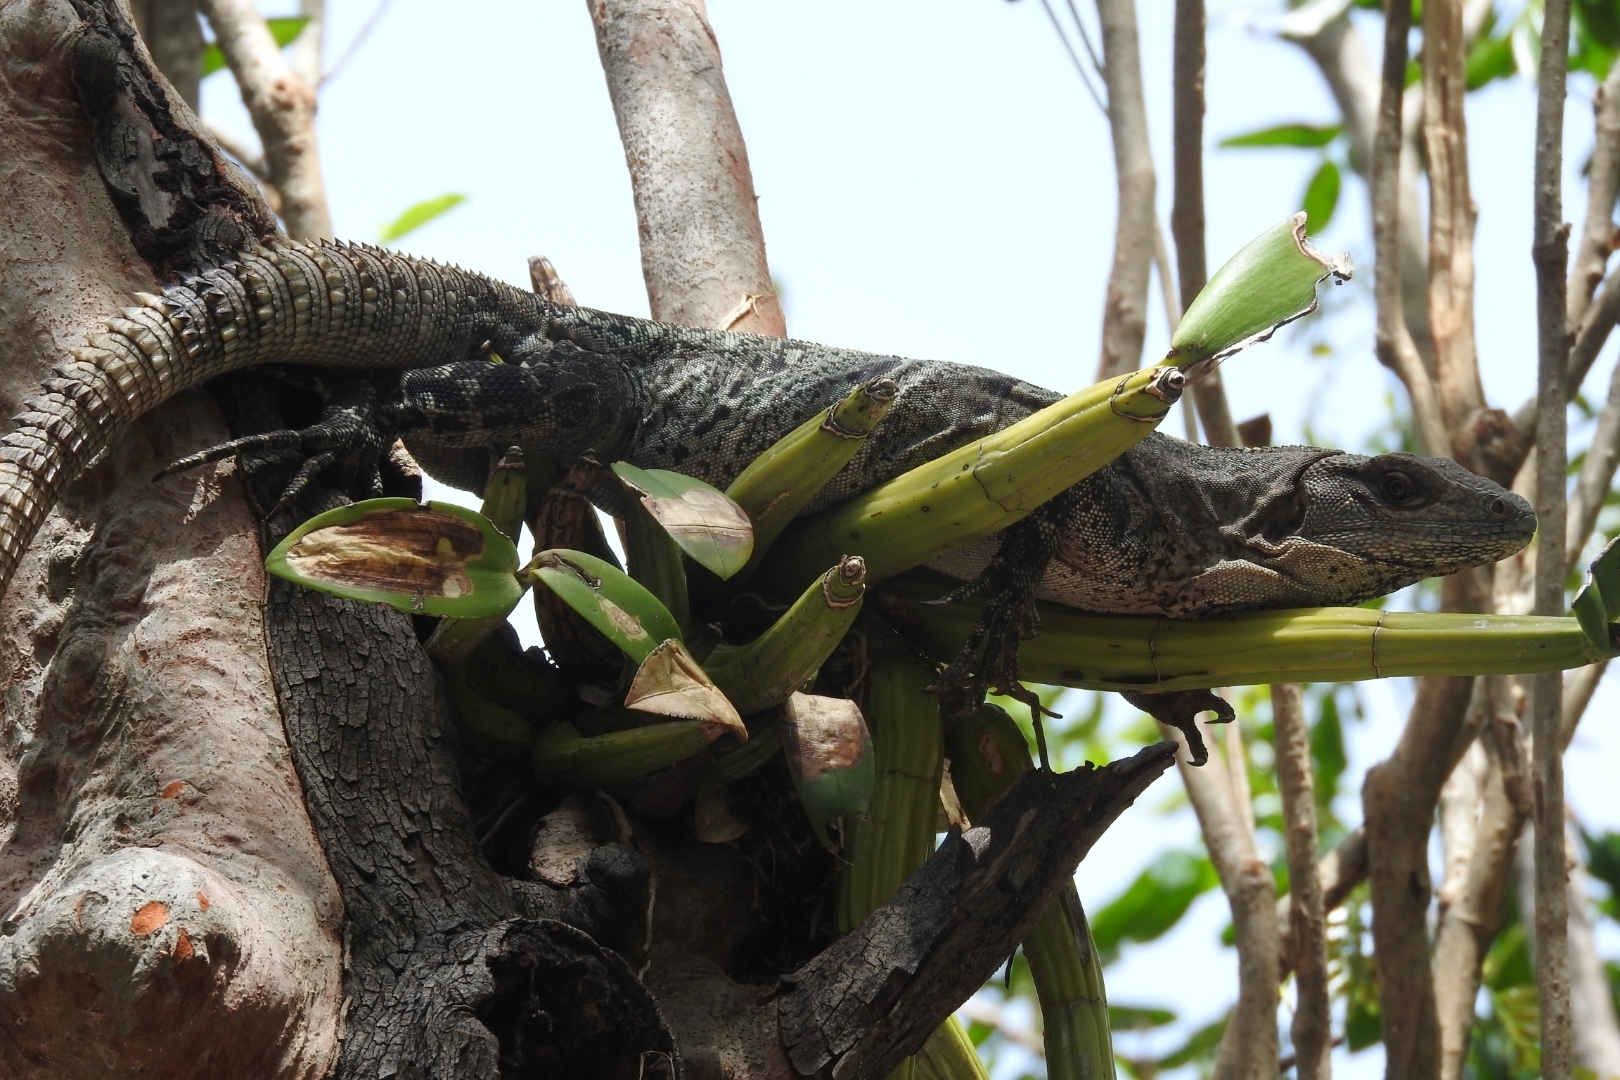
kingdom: Animalia
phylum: Chordata
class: Squamata
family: Iguanidae
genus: Ctenosaura
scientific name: Ctenosaura similis
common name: Black spiny-tailed iguana
